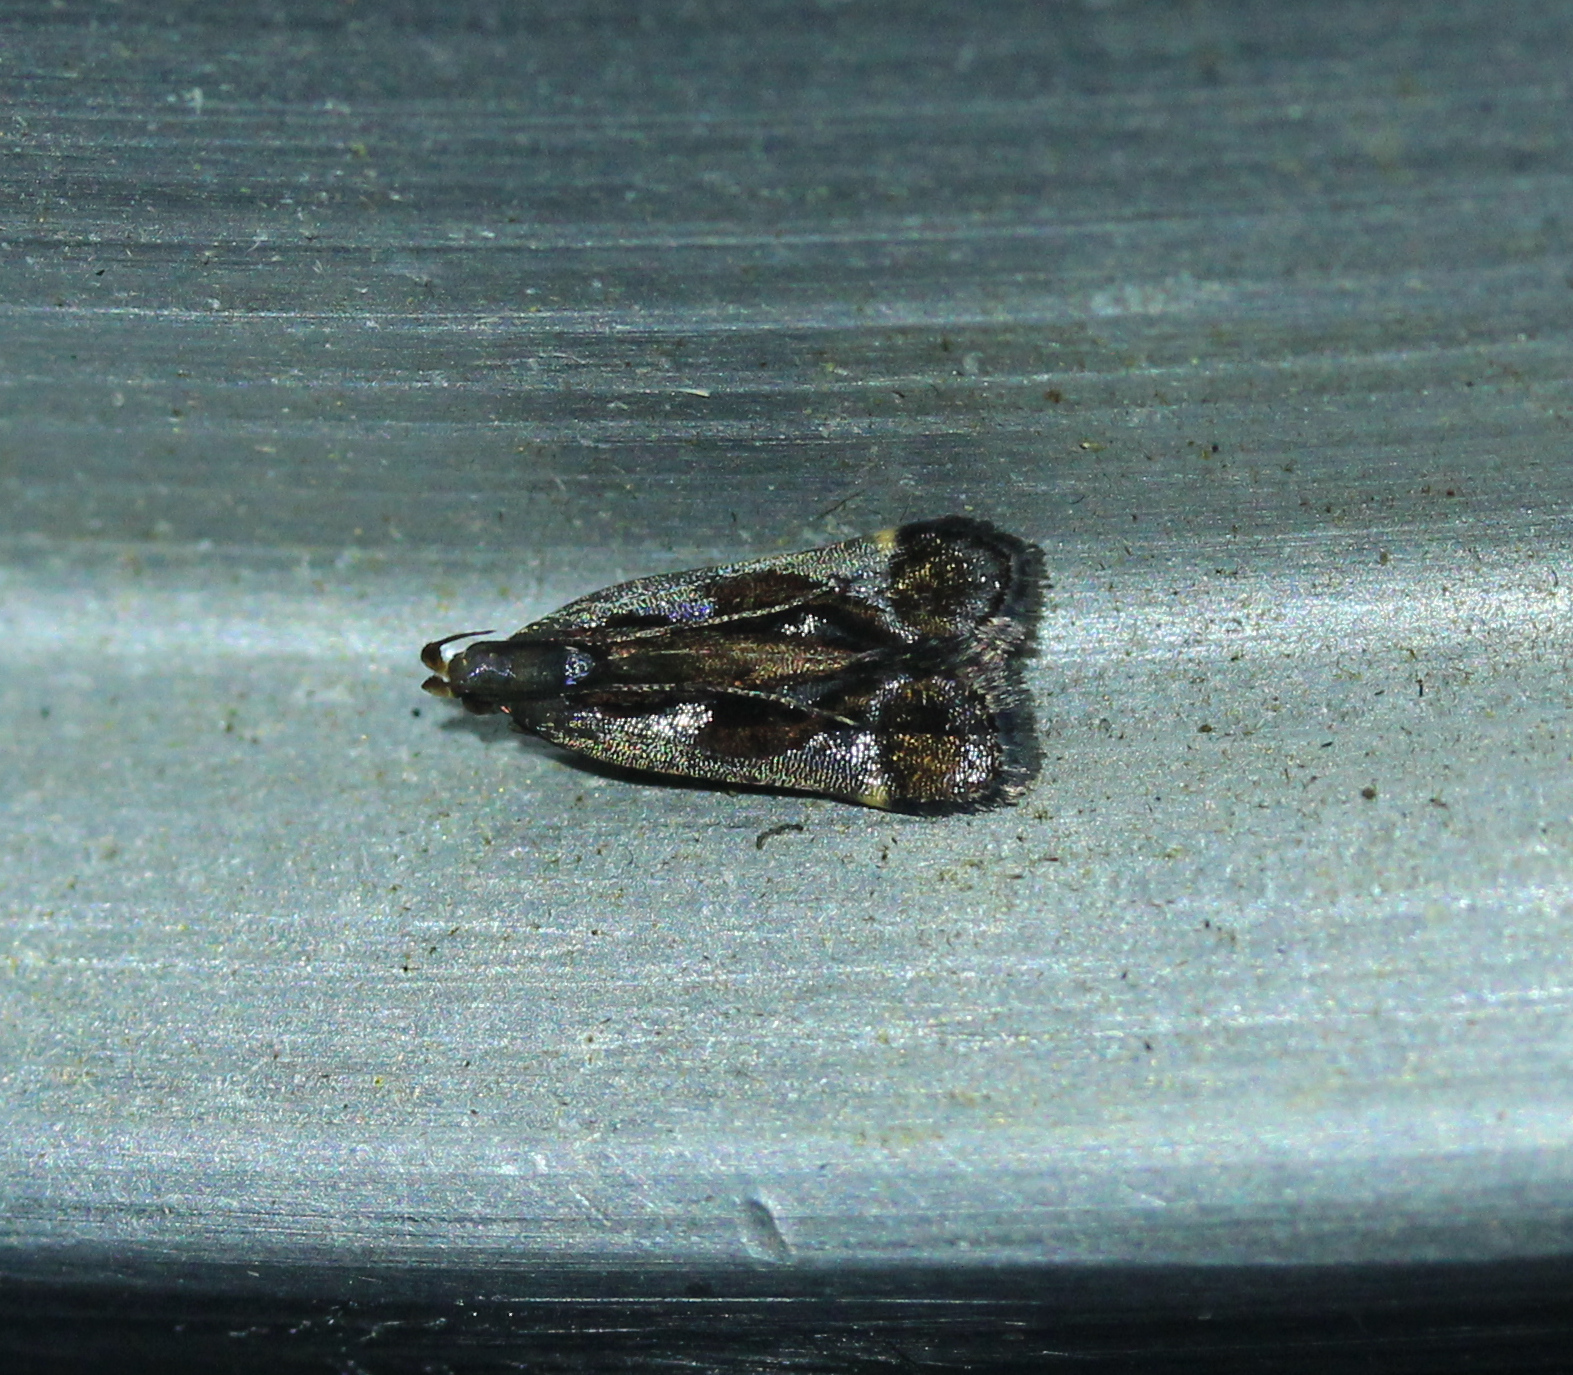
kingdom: Animalia
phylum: Arthropoda
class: Insecta
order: Lepidoptera
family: Gelechiidae
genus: Dichomeris
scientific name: Dichomeris ochripalpella
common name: Shining dichomeris moth
